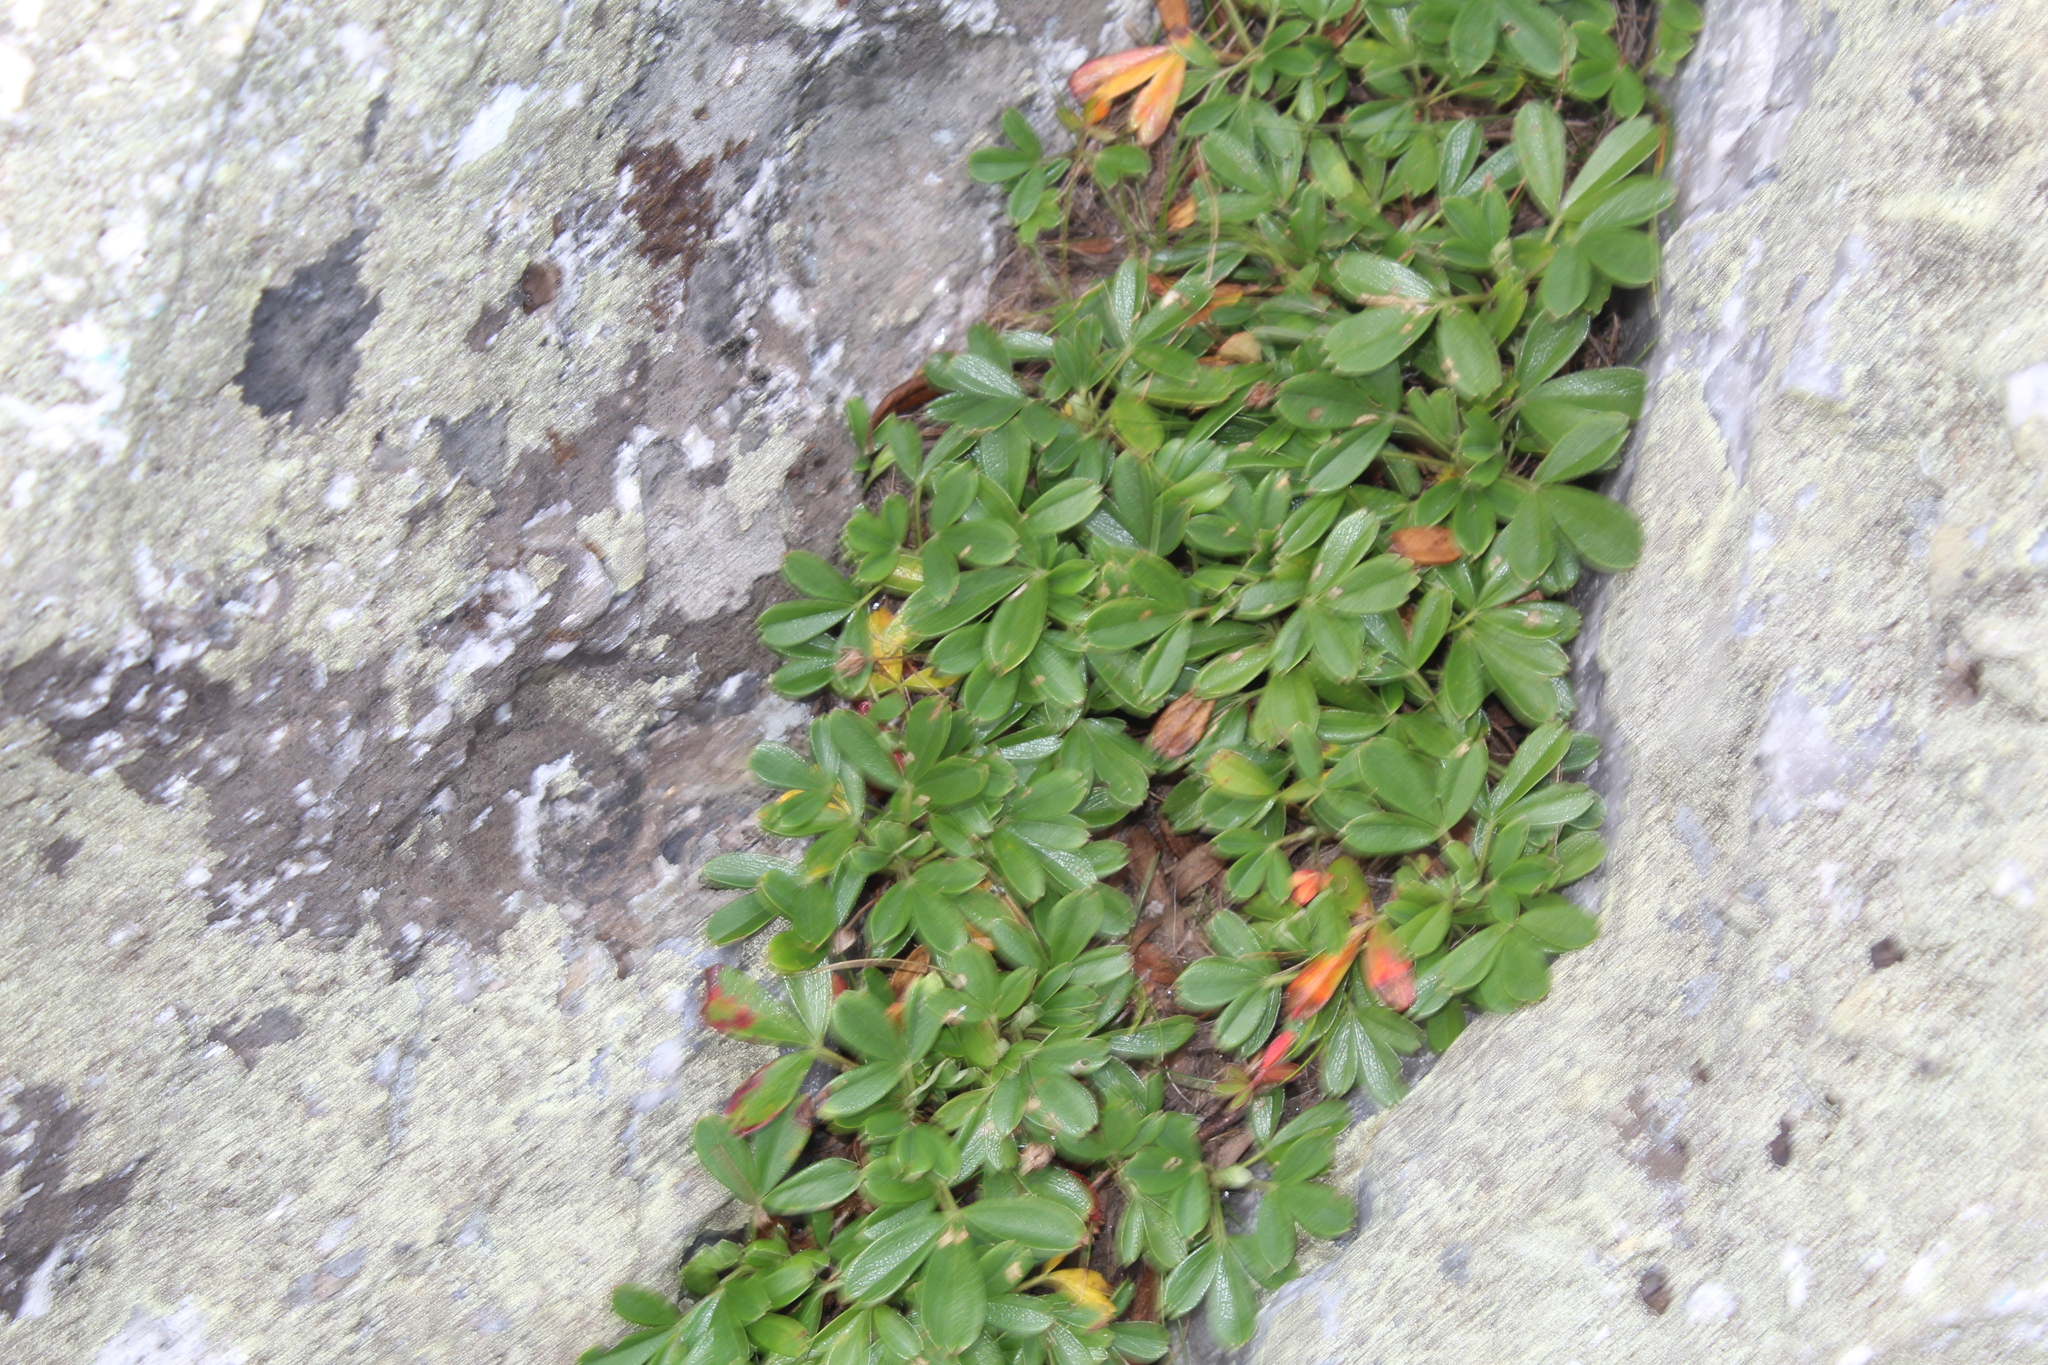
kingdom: Plantae
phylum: Tracheophyta
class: Magnoliopsida
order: Rosales
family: Rosaceae
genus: Sibbaldia
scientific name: Sibbaldia tridentata
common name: Three-toothed cinquefoil
